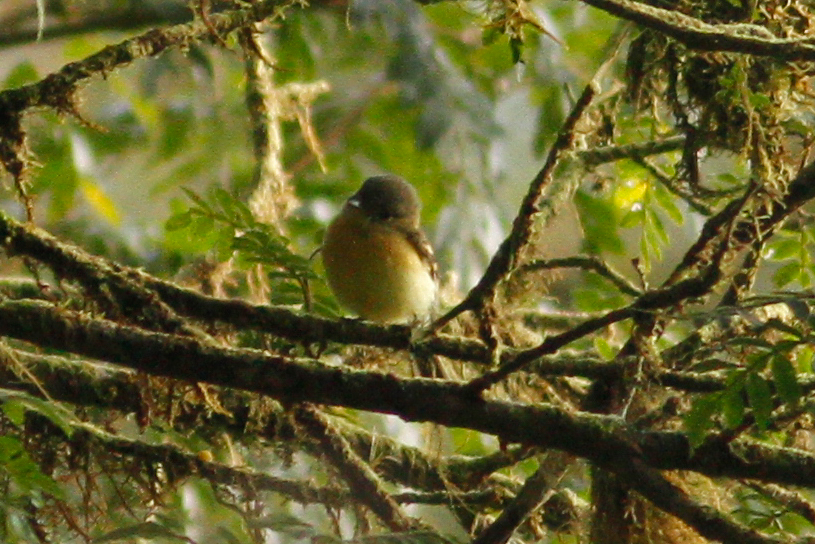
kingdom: Animalia
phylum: Chordata
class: Aves
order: Passeriformes
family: Tyrannidae
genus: Myiophobus
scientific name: Myiophobus pulcher
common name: Handsome flycatcher
